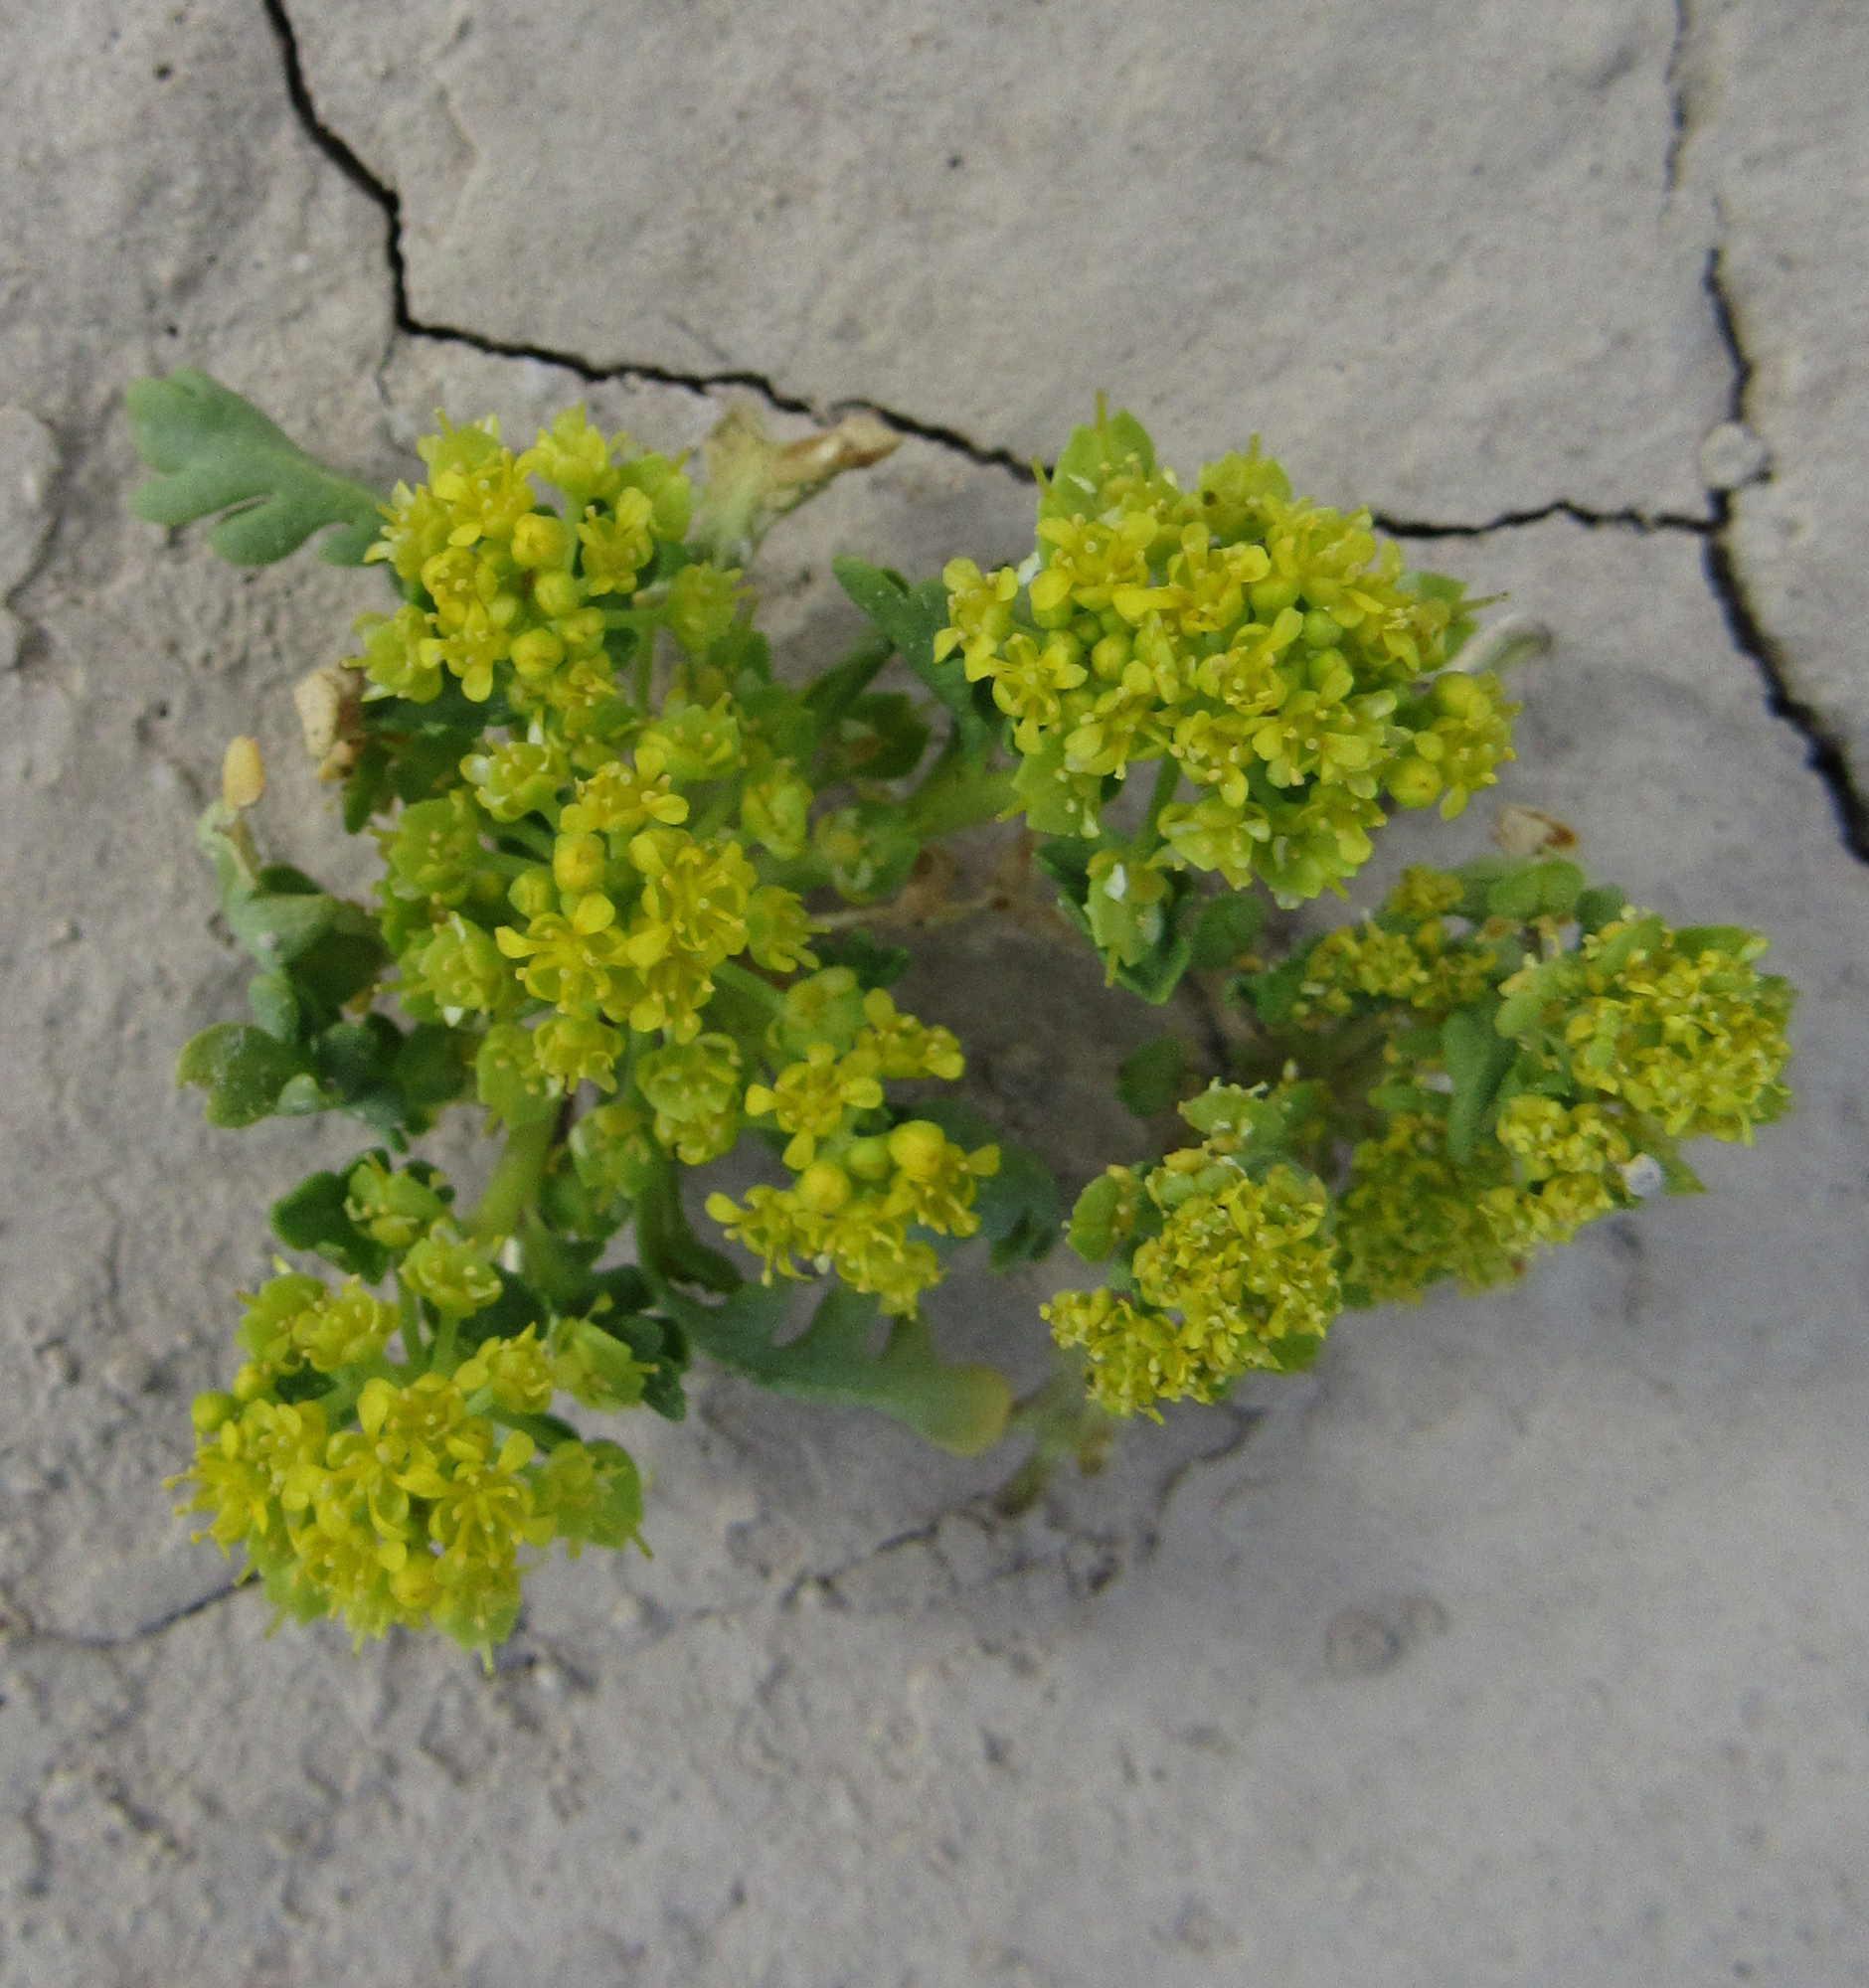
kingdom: Plantae
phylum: Tracheophyta
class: Magnoliopsida
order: Brassicales
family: Brassicaceae
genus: Lepidium
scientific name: Lepidium flavum
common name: Yellow pepperwort
